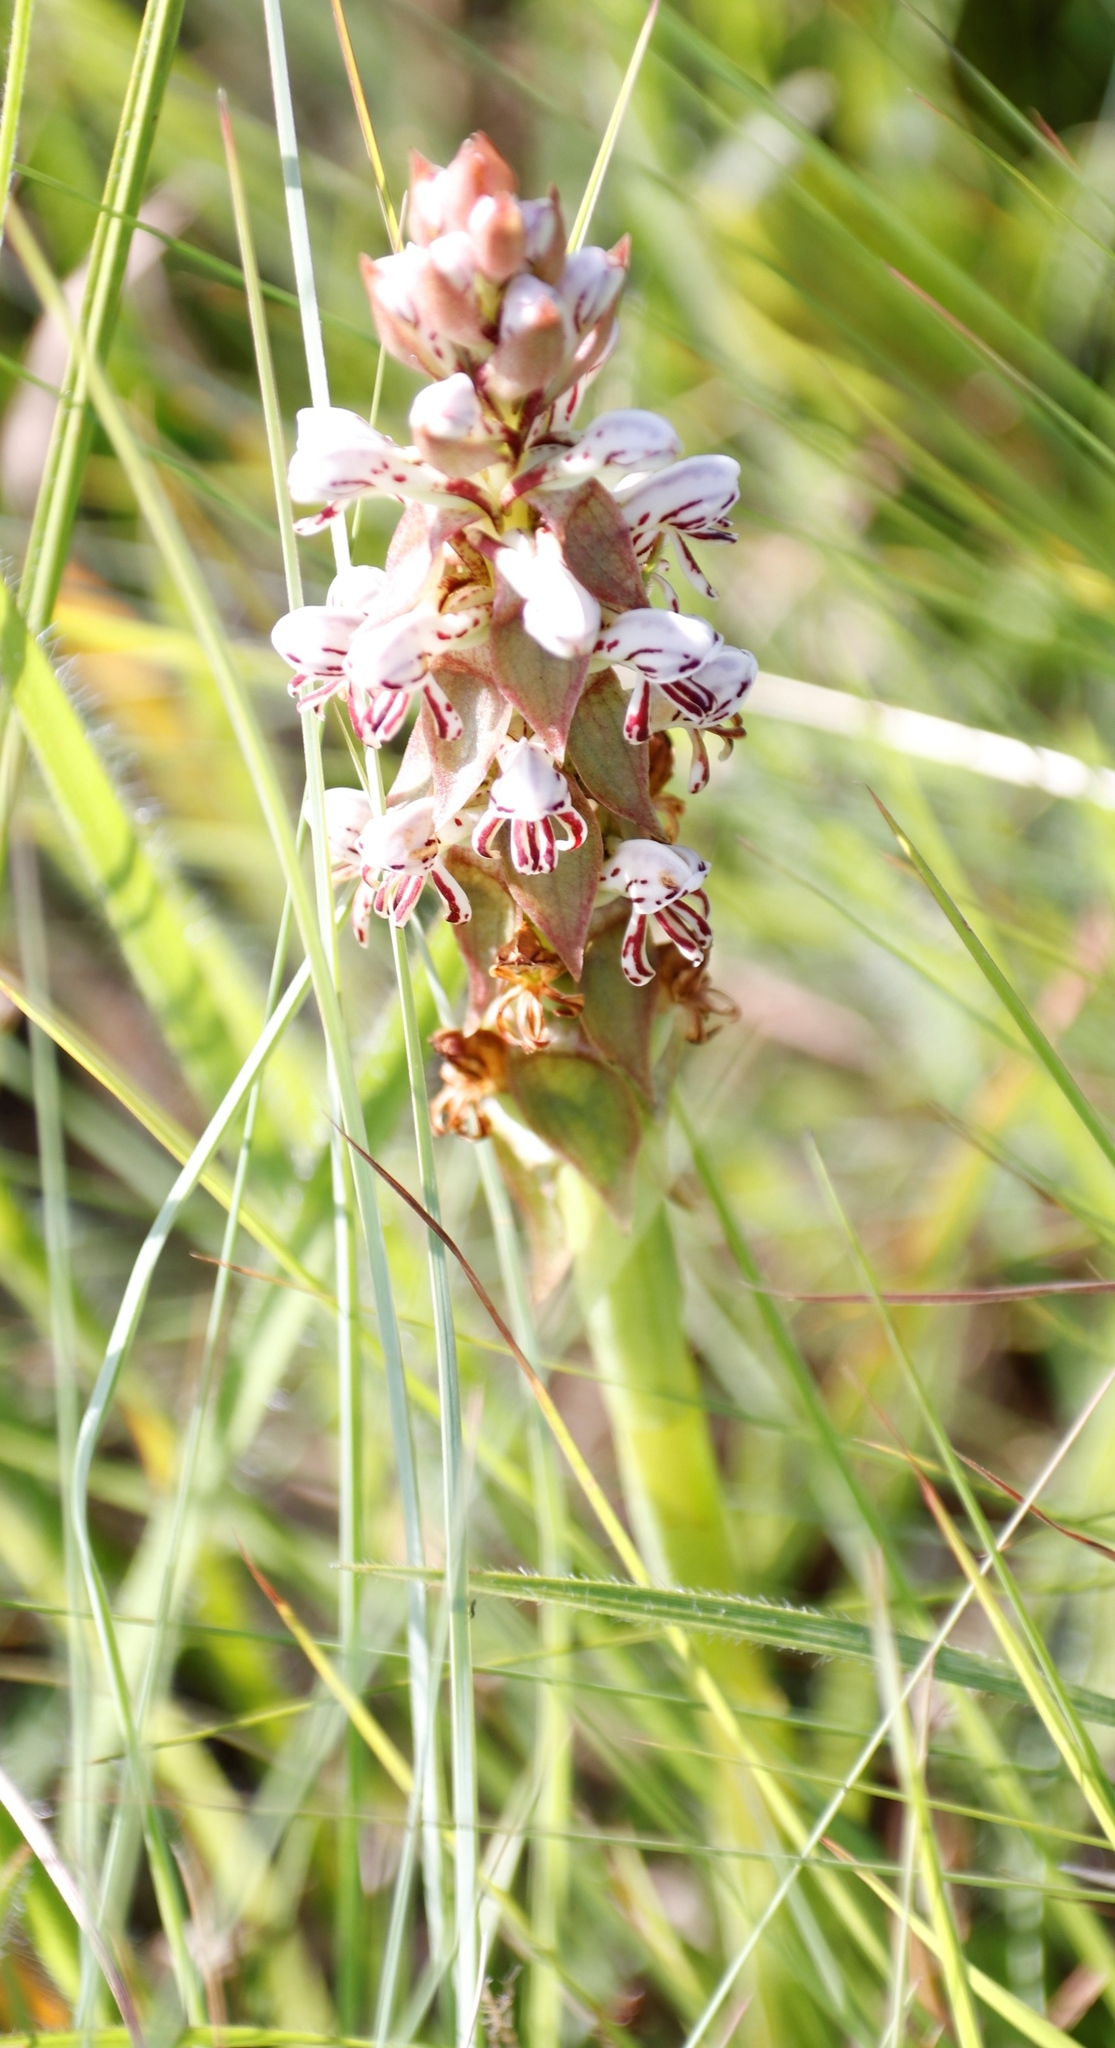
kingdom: Plantae
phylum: Tracheophyta
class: Liliopsida
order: Asparagales
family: Orchidaceae
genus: Satyrium
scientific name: Satyrium cristatum
